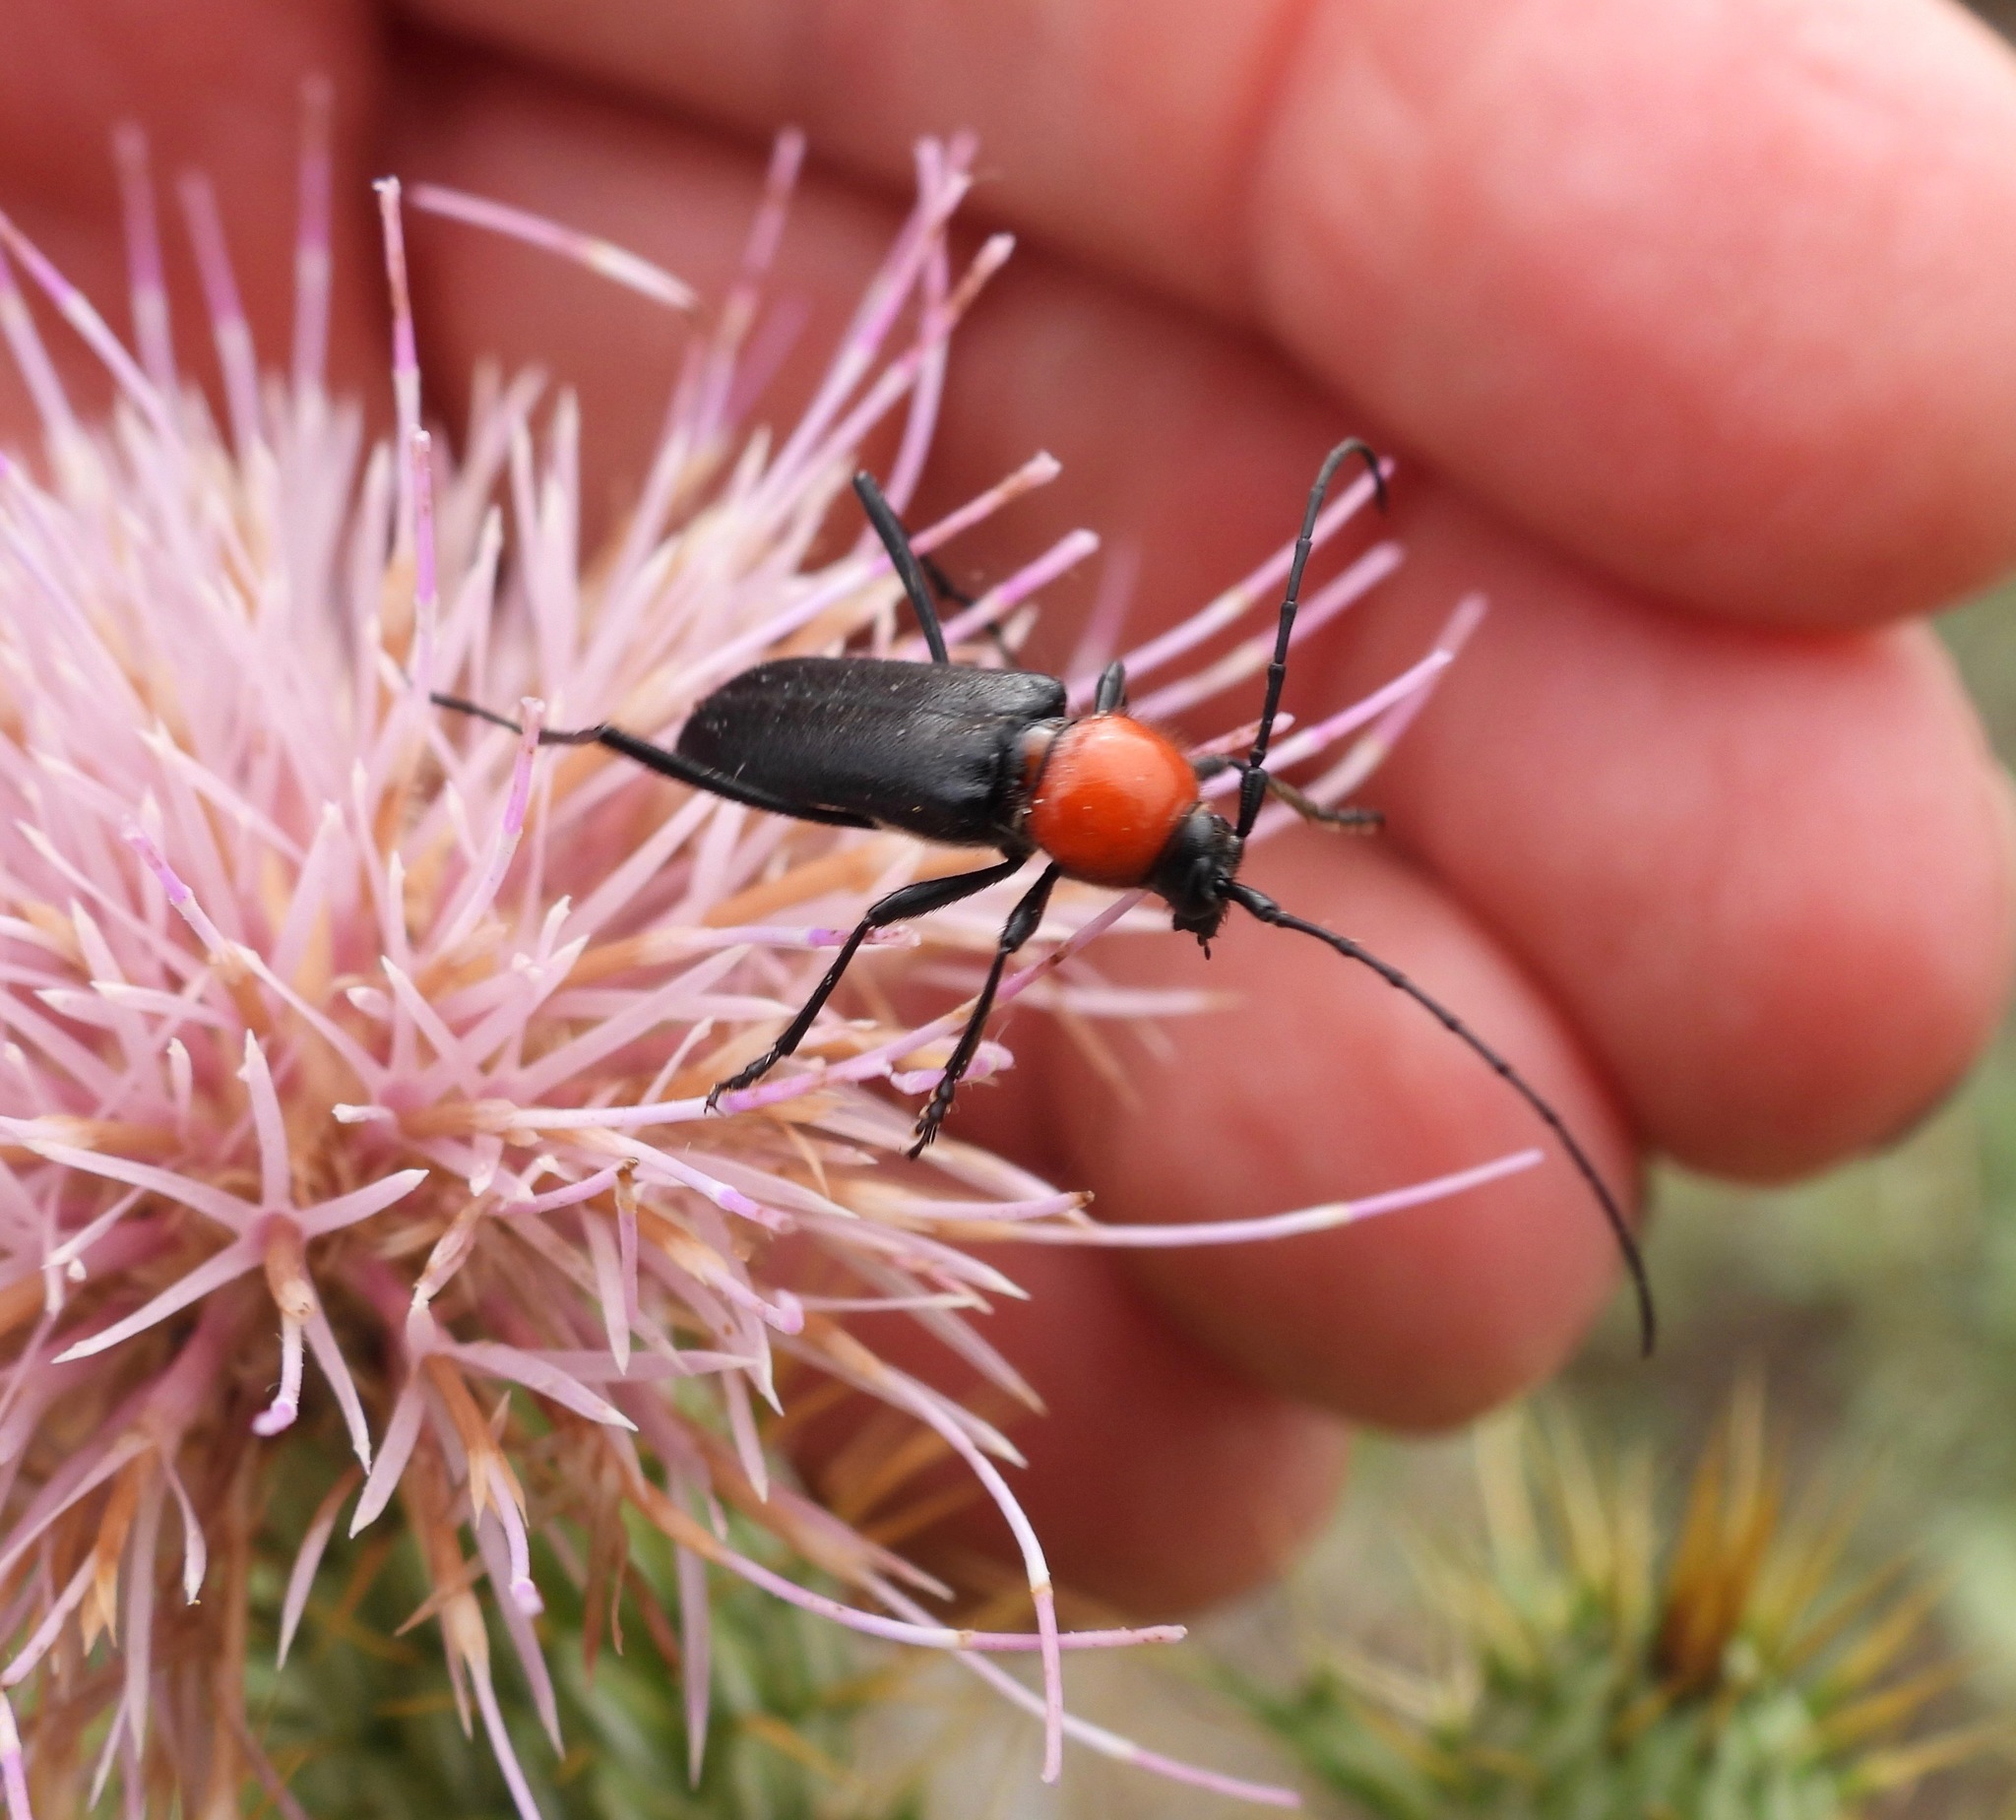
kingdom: Animalia
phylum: Arthropoda
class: Insecta
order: Coleoptera
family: Cerambycidae
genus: Batyle
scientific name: Batyle ignicollis
